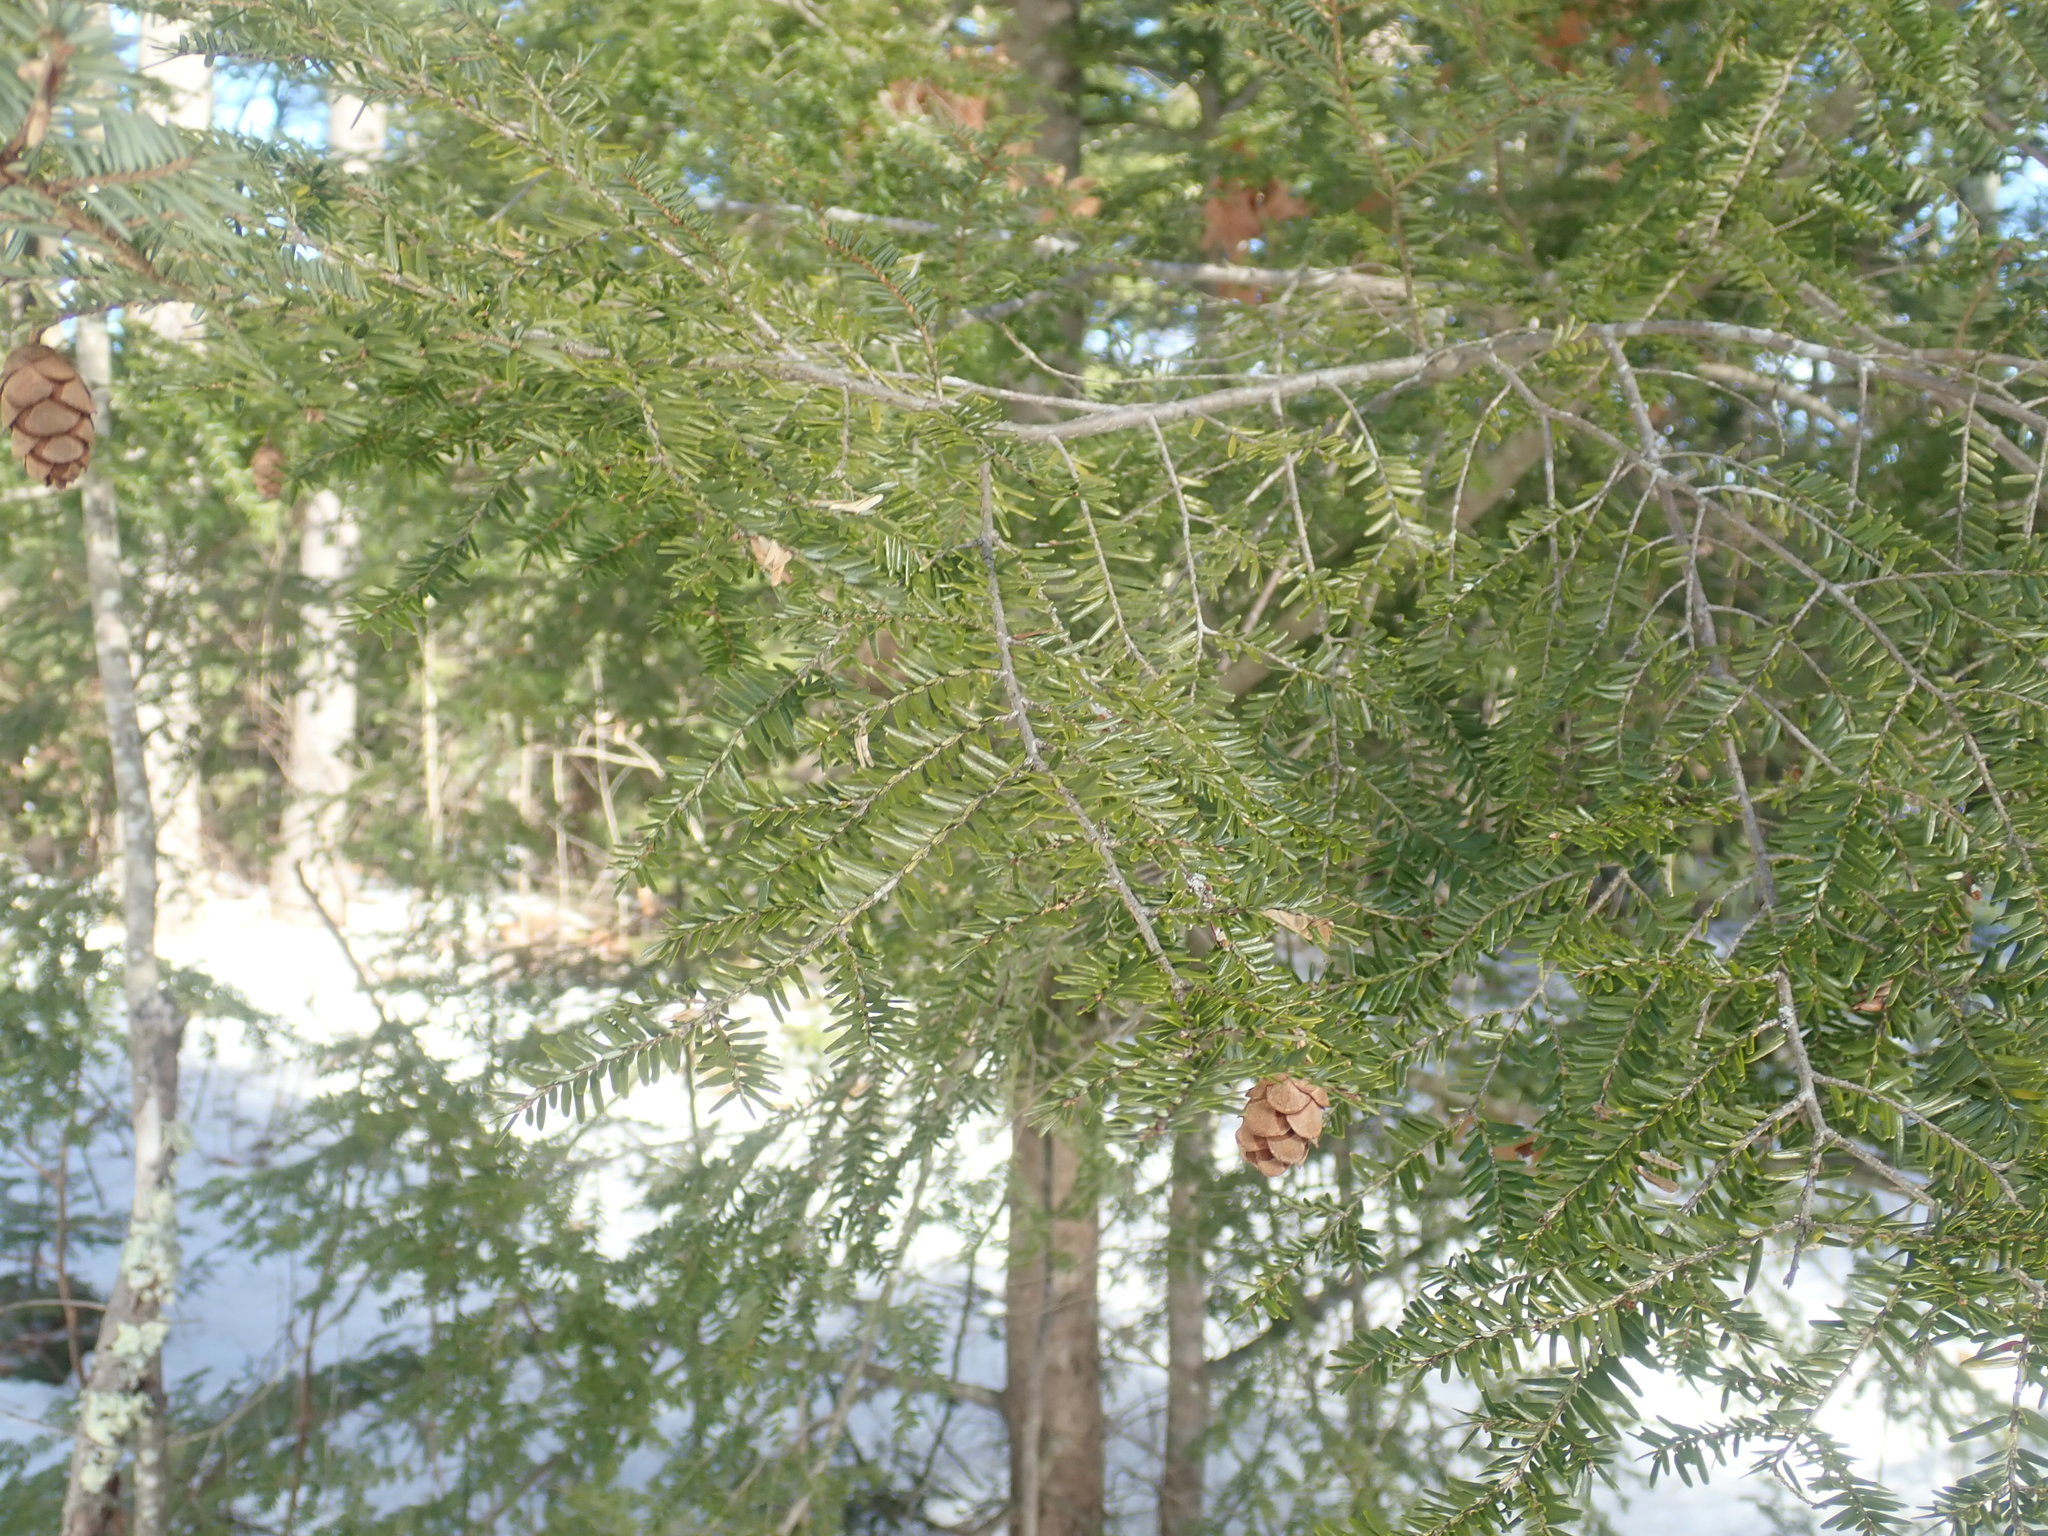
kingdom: Plantae
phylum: Tracheophyta
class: Pinopsida
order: Pinales
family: Pinaceae
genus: Tsuga
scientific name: Tsuga canadensis
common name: Eastern hemlock
